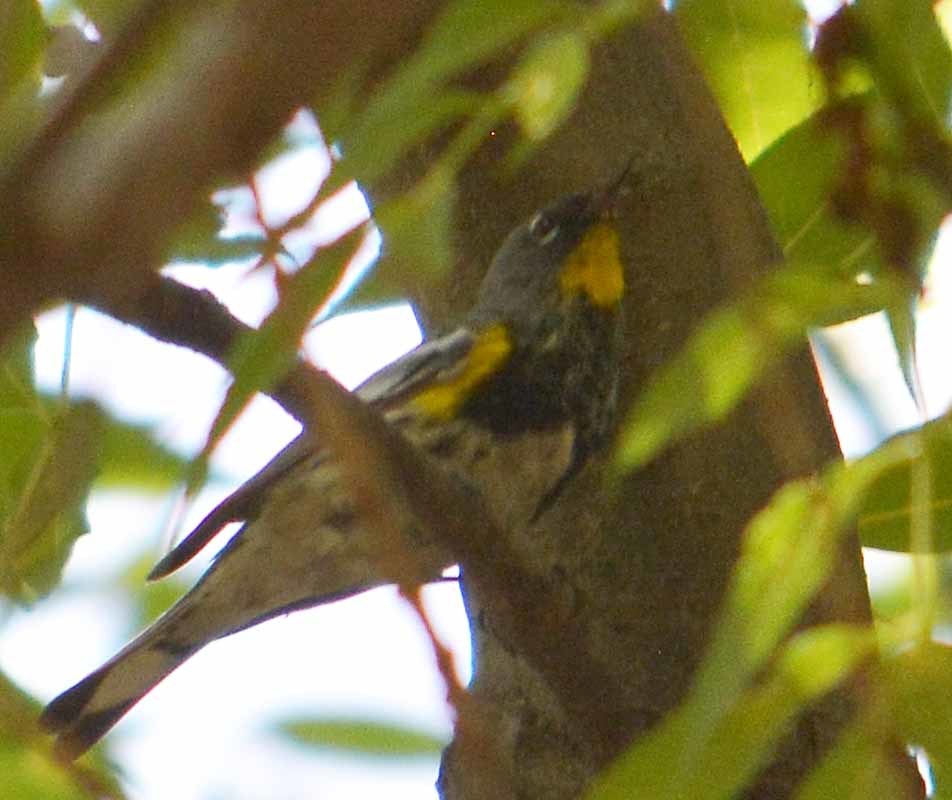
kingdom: Animalia
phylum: Chordata
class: Aves
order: Passeriformes
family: Parulidae
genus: Setophaga
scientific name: Setophaga auduboni
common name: Audubon's warbler
